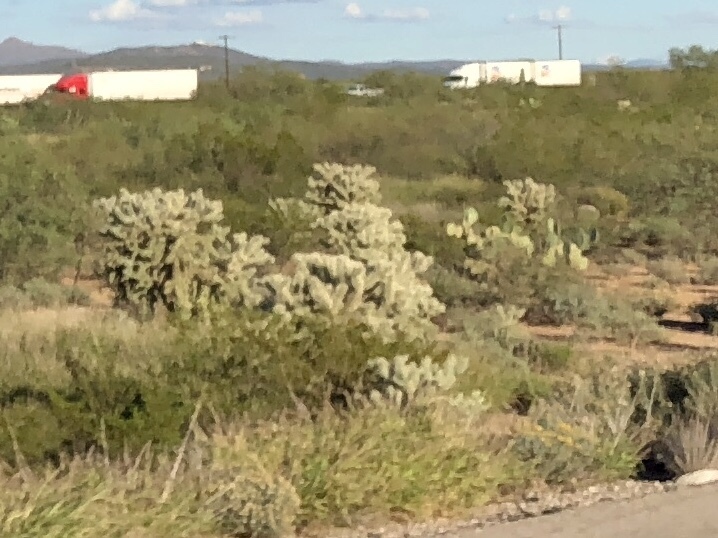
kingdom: Plantae
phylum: Tracheophyta
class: Magnoliopsida
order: Caryophyllales
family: Cactaceae
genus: Cylindropuntia
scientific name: Cylindropuntia fulgida
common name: Jumping cholla
